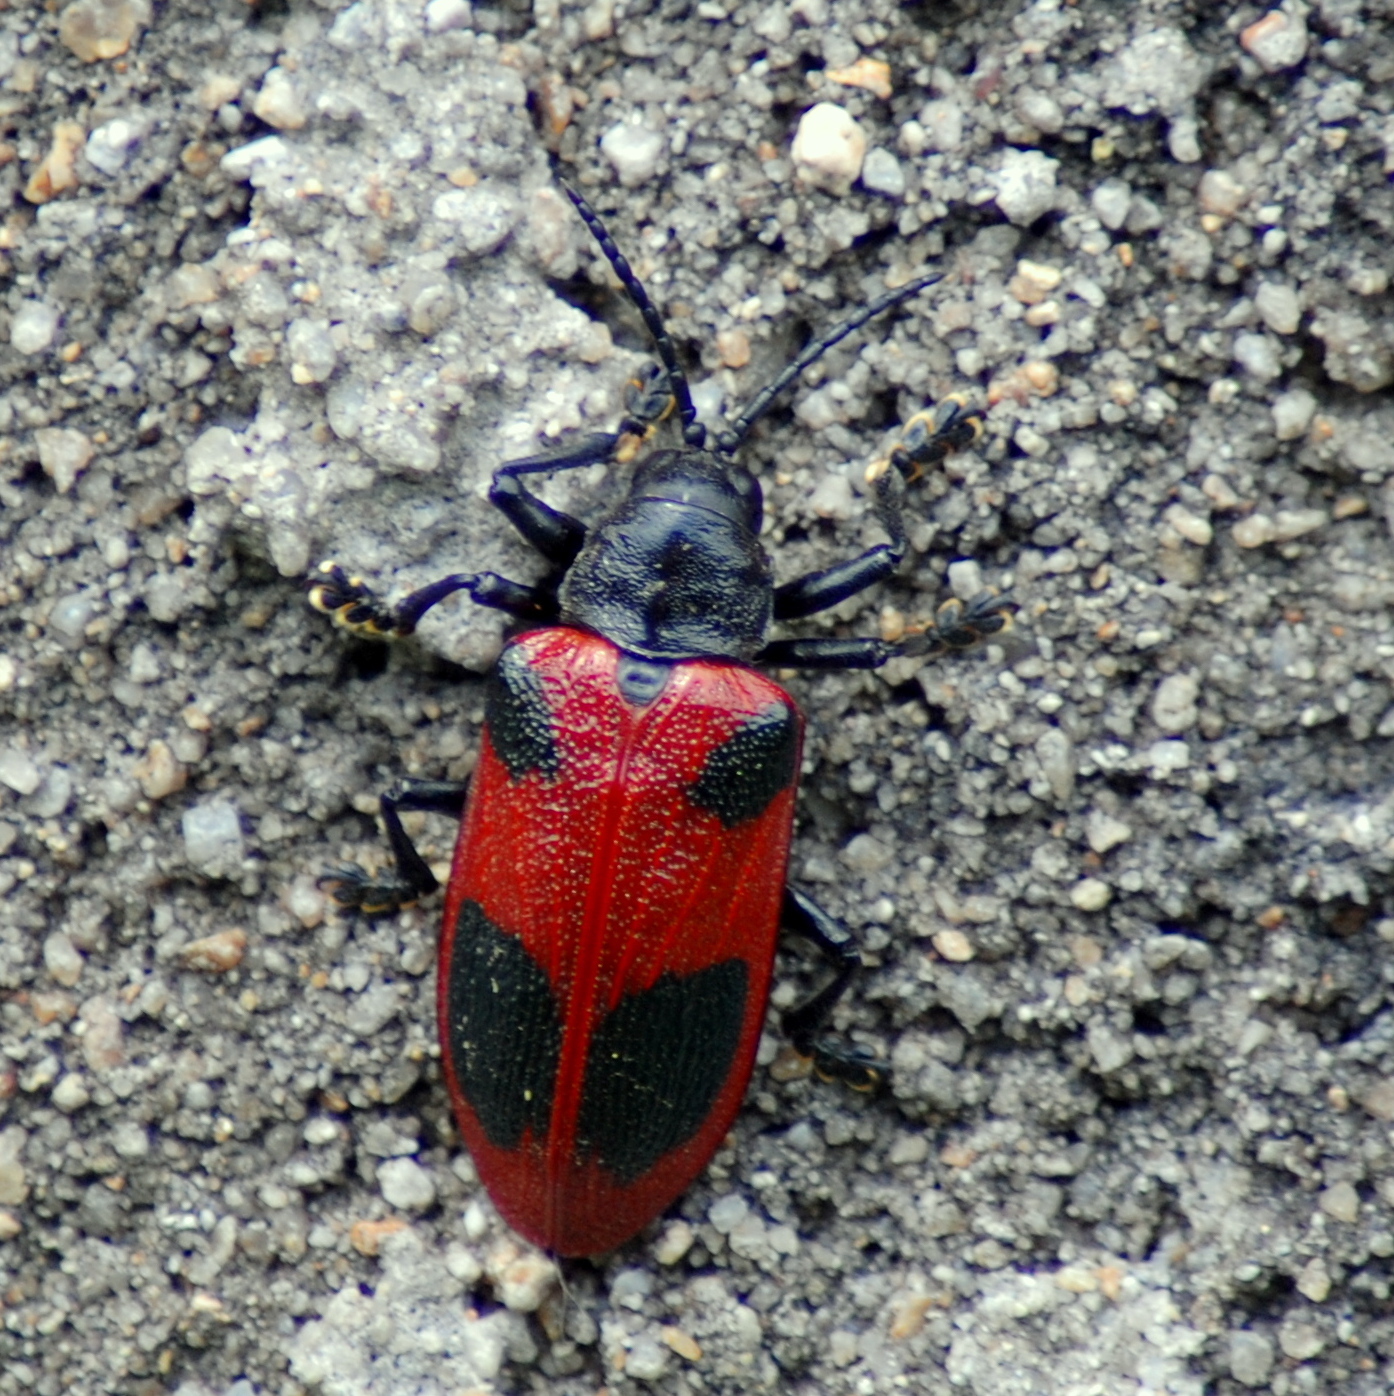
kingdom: Animalia
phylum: Arthropoda
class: Insecta
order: Coleoptera
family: Chrysomelidae
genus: Coraliomela
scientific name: Coraliomela quadrimaculata
